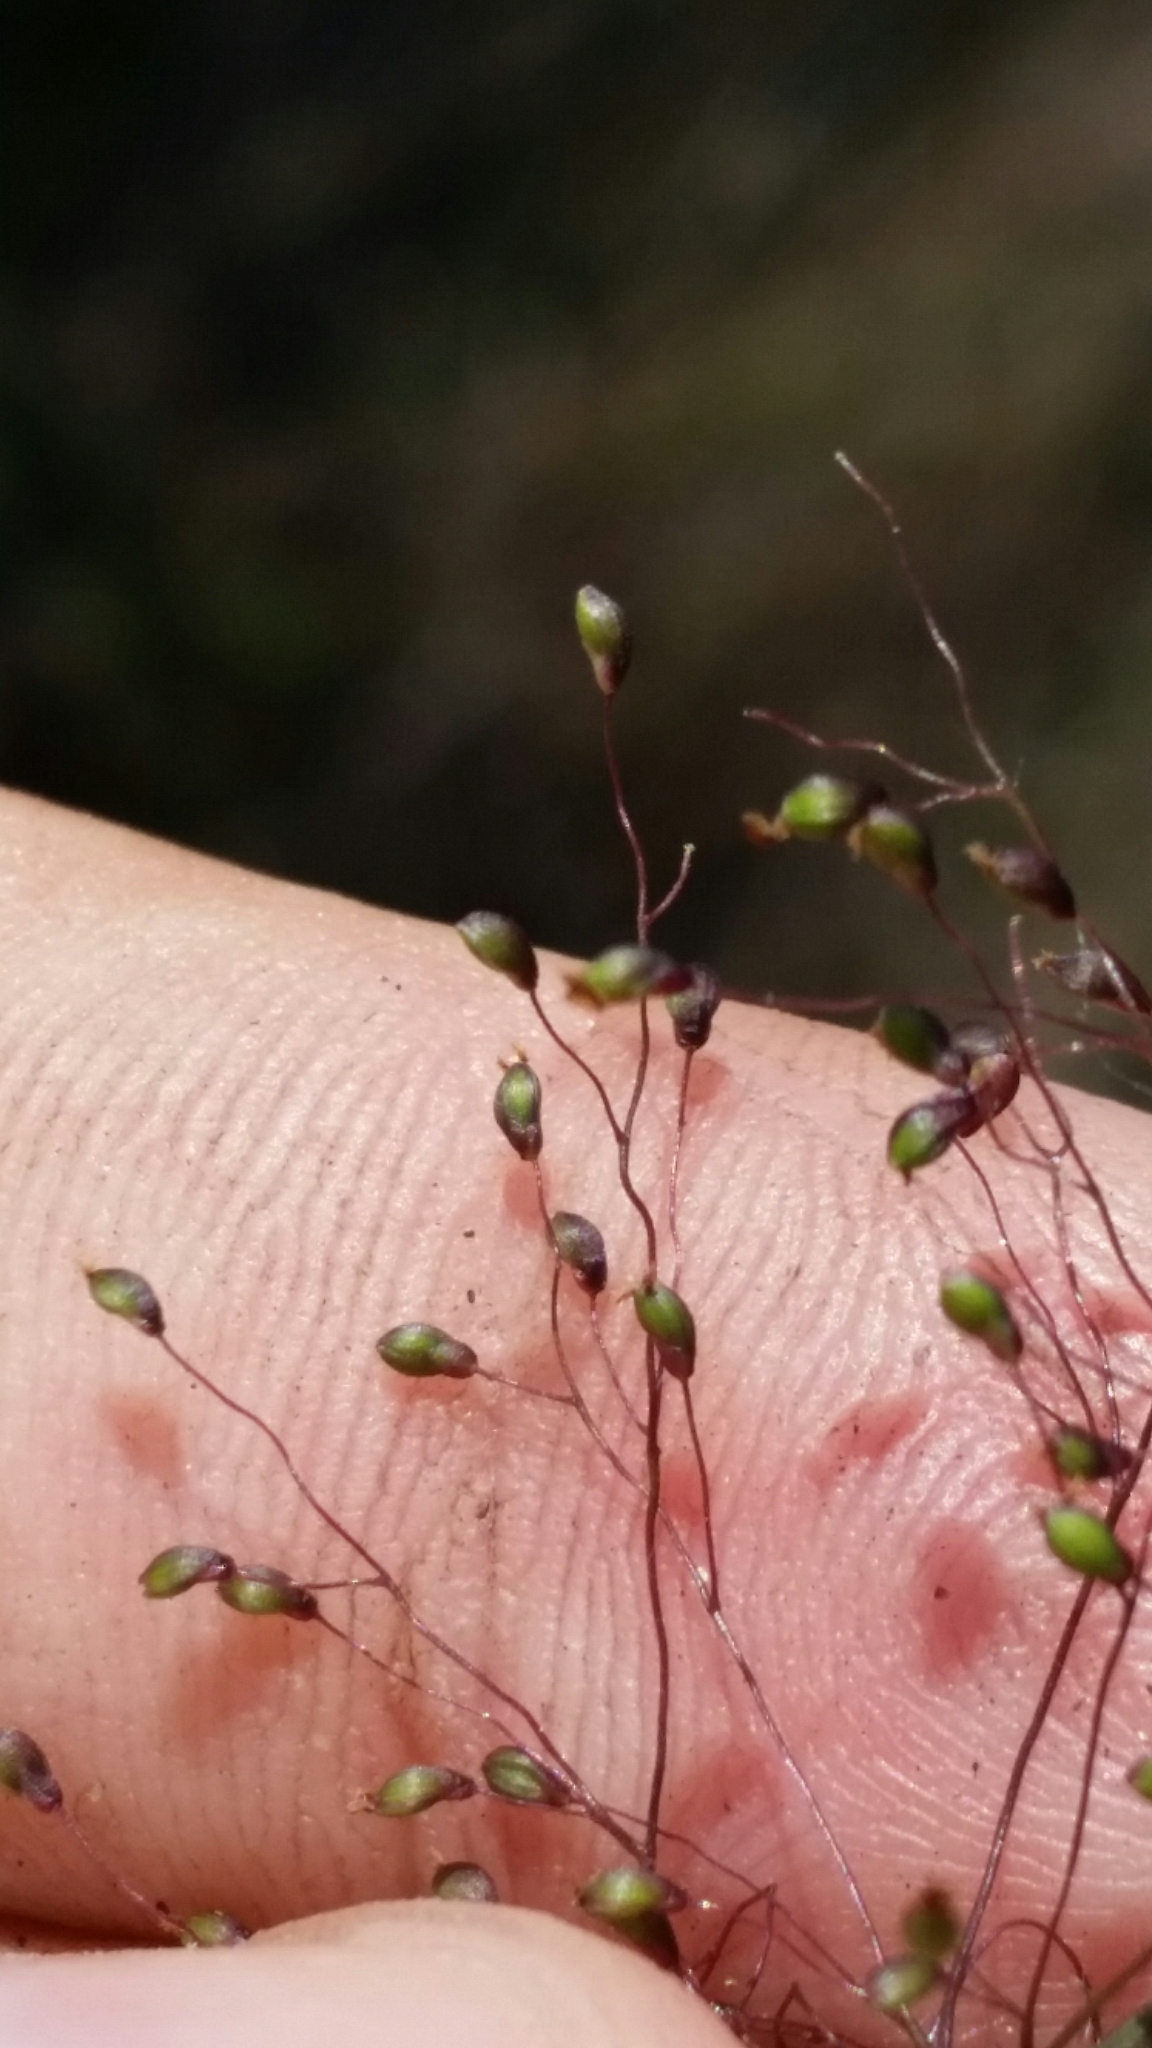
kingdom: Plantae
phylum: Tracheophyta
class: Liliopsida
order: Poales
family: Poaceae
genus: Dichanthelium
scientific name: Dichanthelium strigosum
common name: Cushion-tuft panic grass
